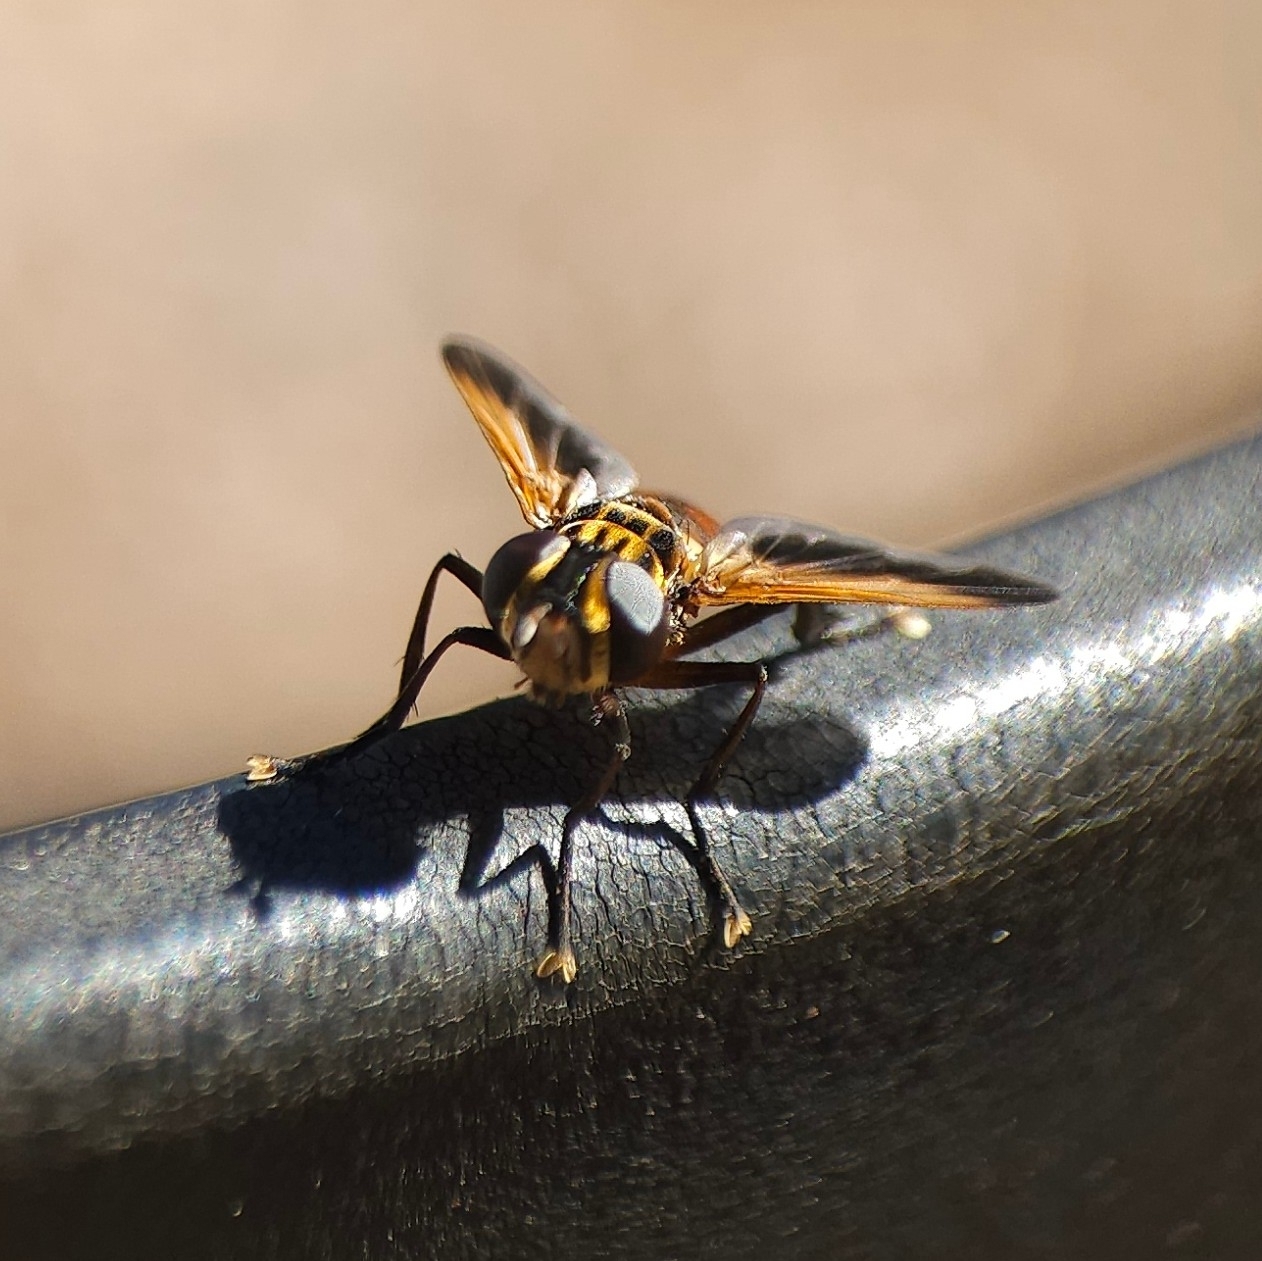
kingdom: Animalia
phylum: Arthropoda
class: Insecta
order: Diptera
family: Tachinidae
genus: Trichopoda
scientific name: Trichopoda pictipennis
